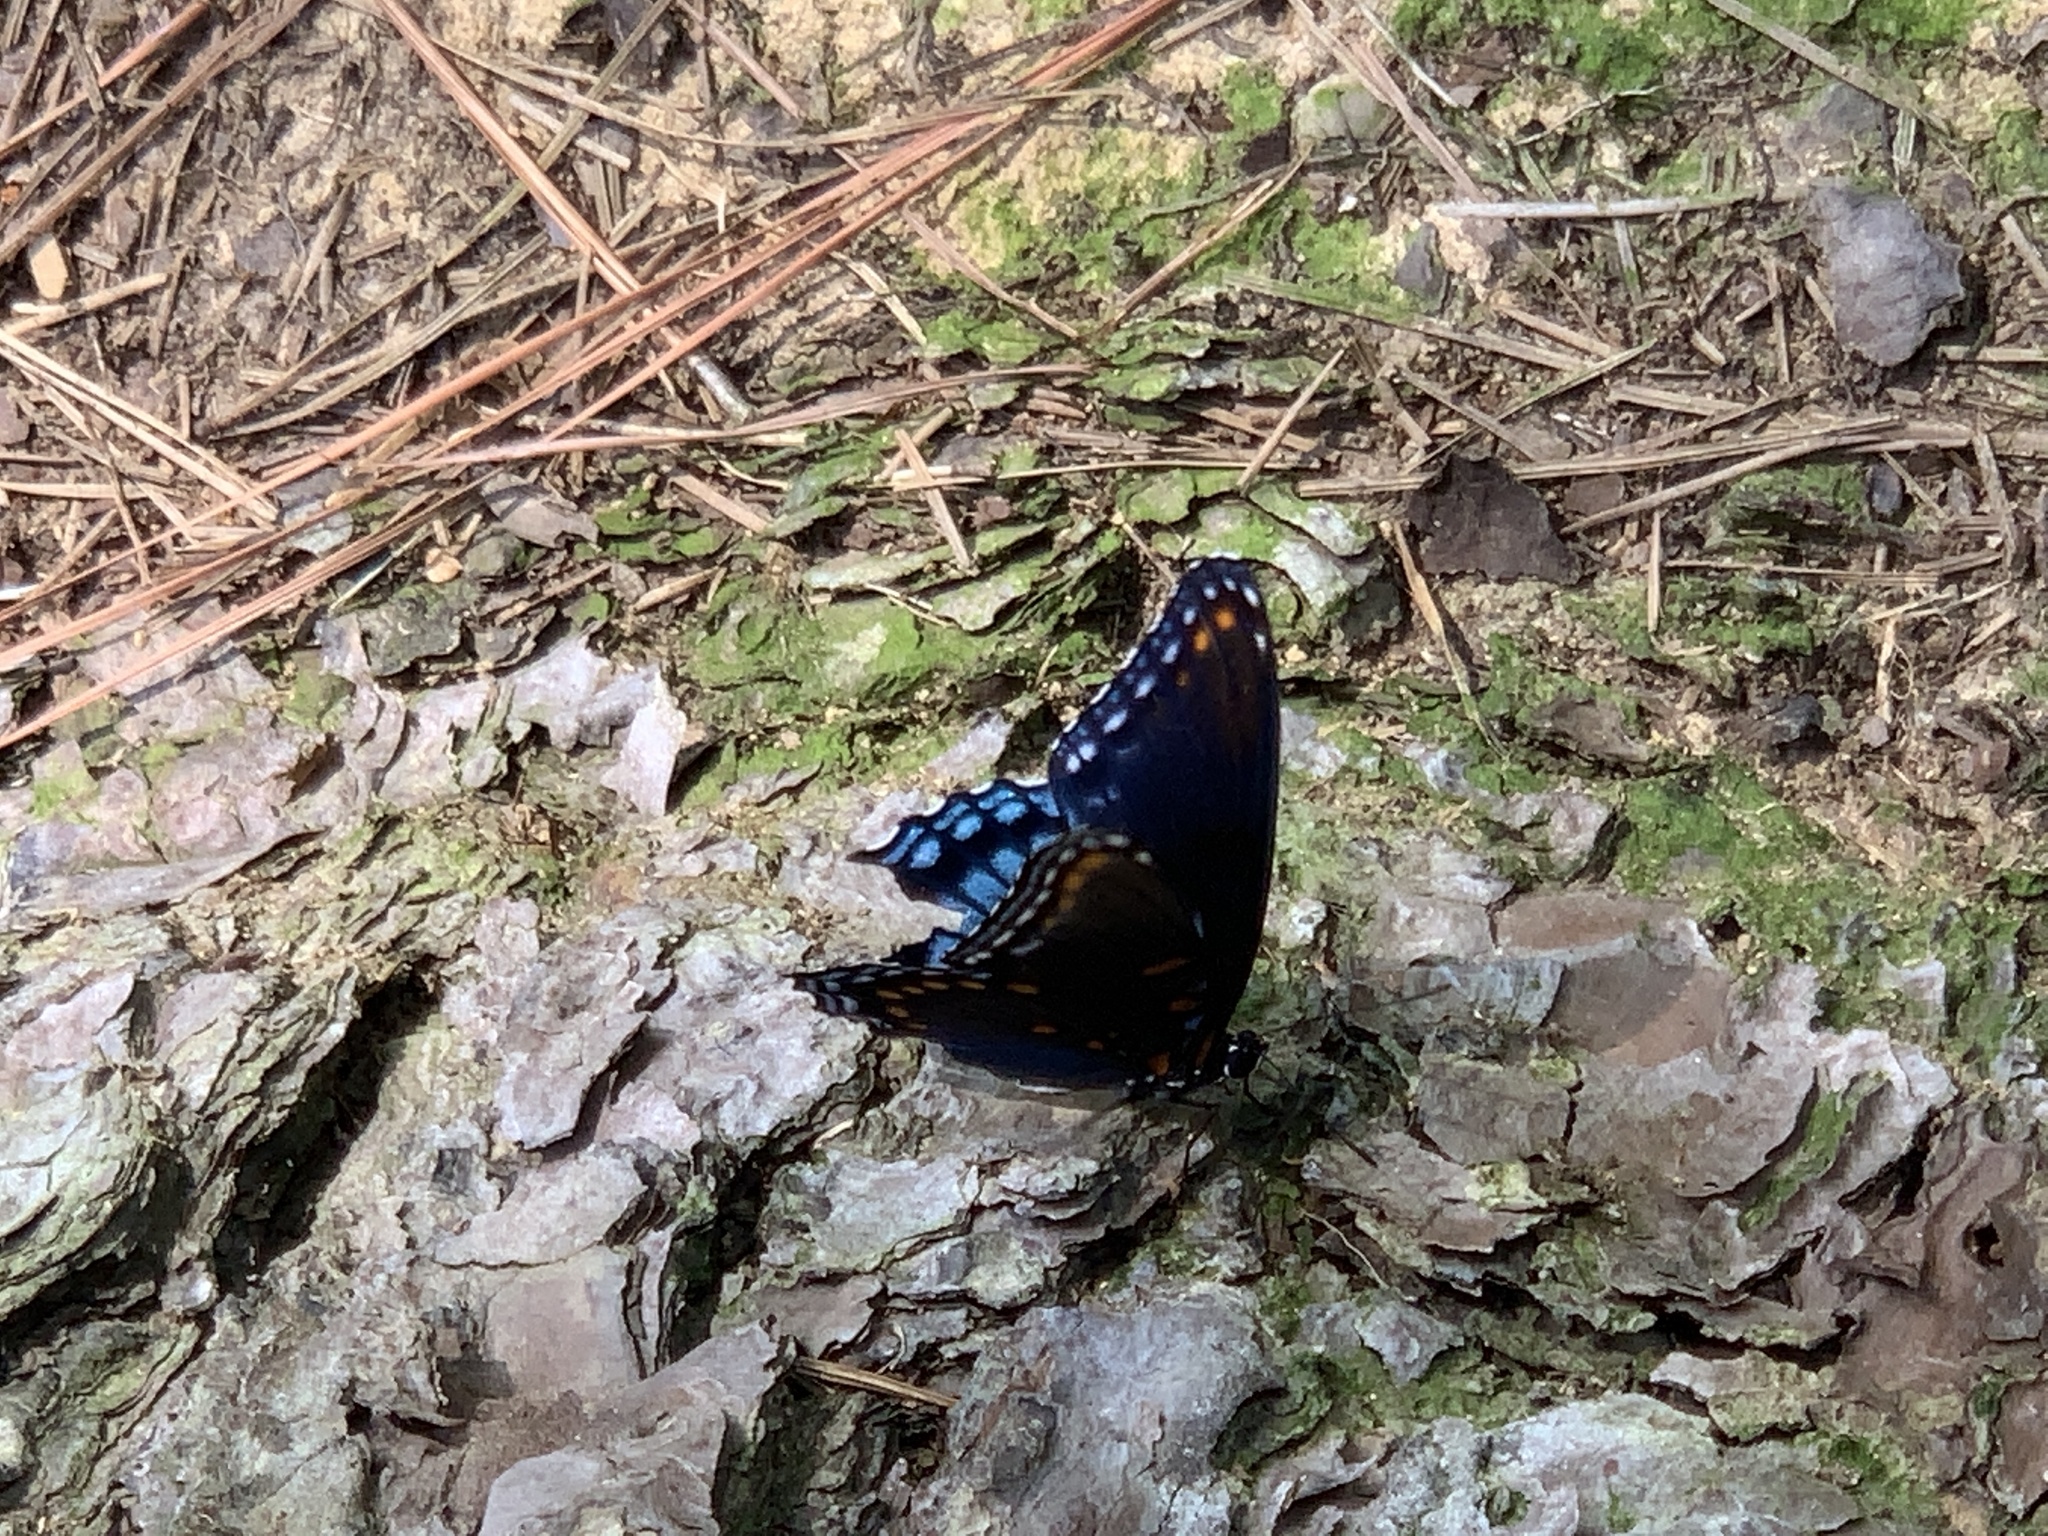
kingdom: Animalia
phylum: Arthropoda
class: Insecta
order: Lepidoptera
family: Nymphalidae
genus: Limenitis
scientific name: Limenitis astyanax
